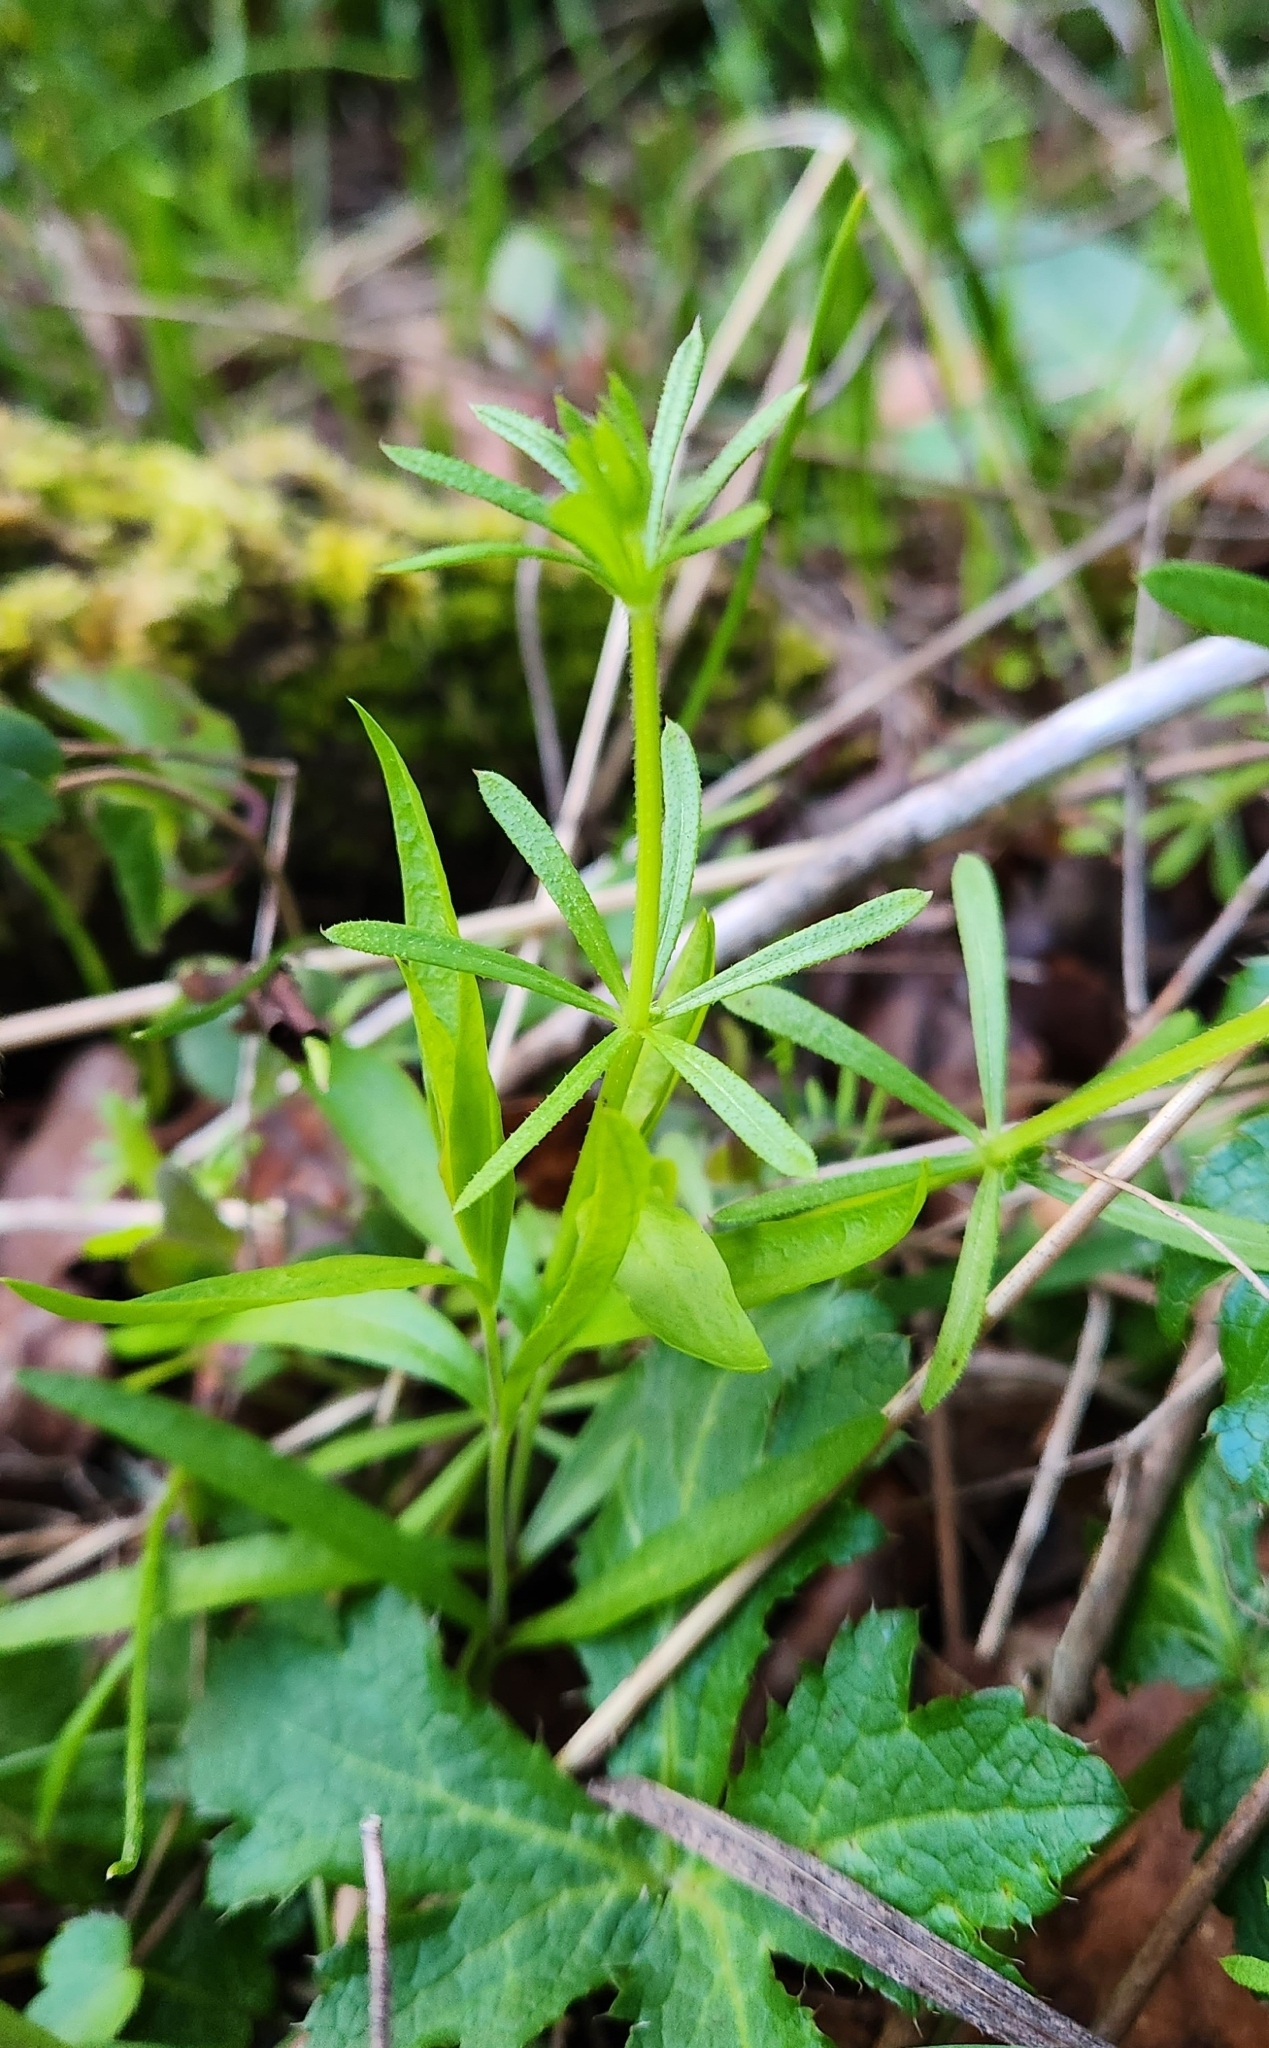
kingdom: Plantae
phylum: Tracheophyta
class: Magnoliopsida
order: Gentianales
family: Rubiaceae
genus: Galium
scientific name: Galium aparine
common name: Cleavers
